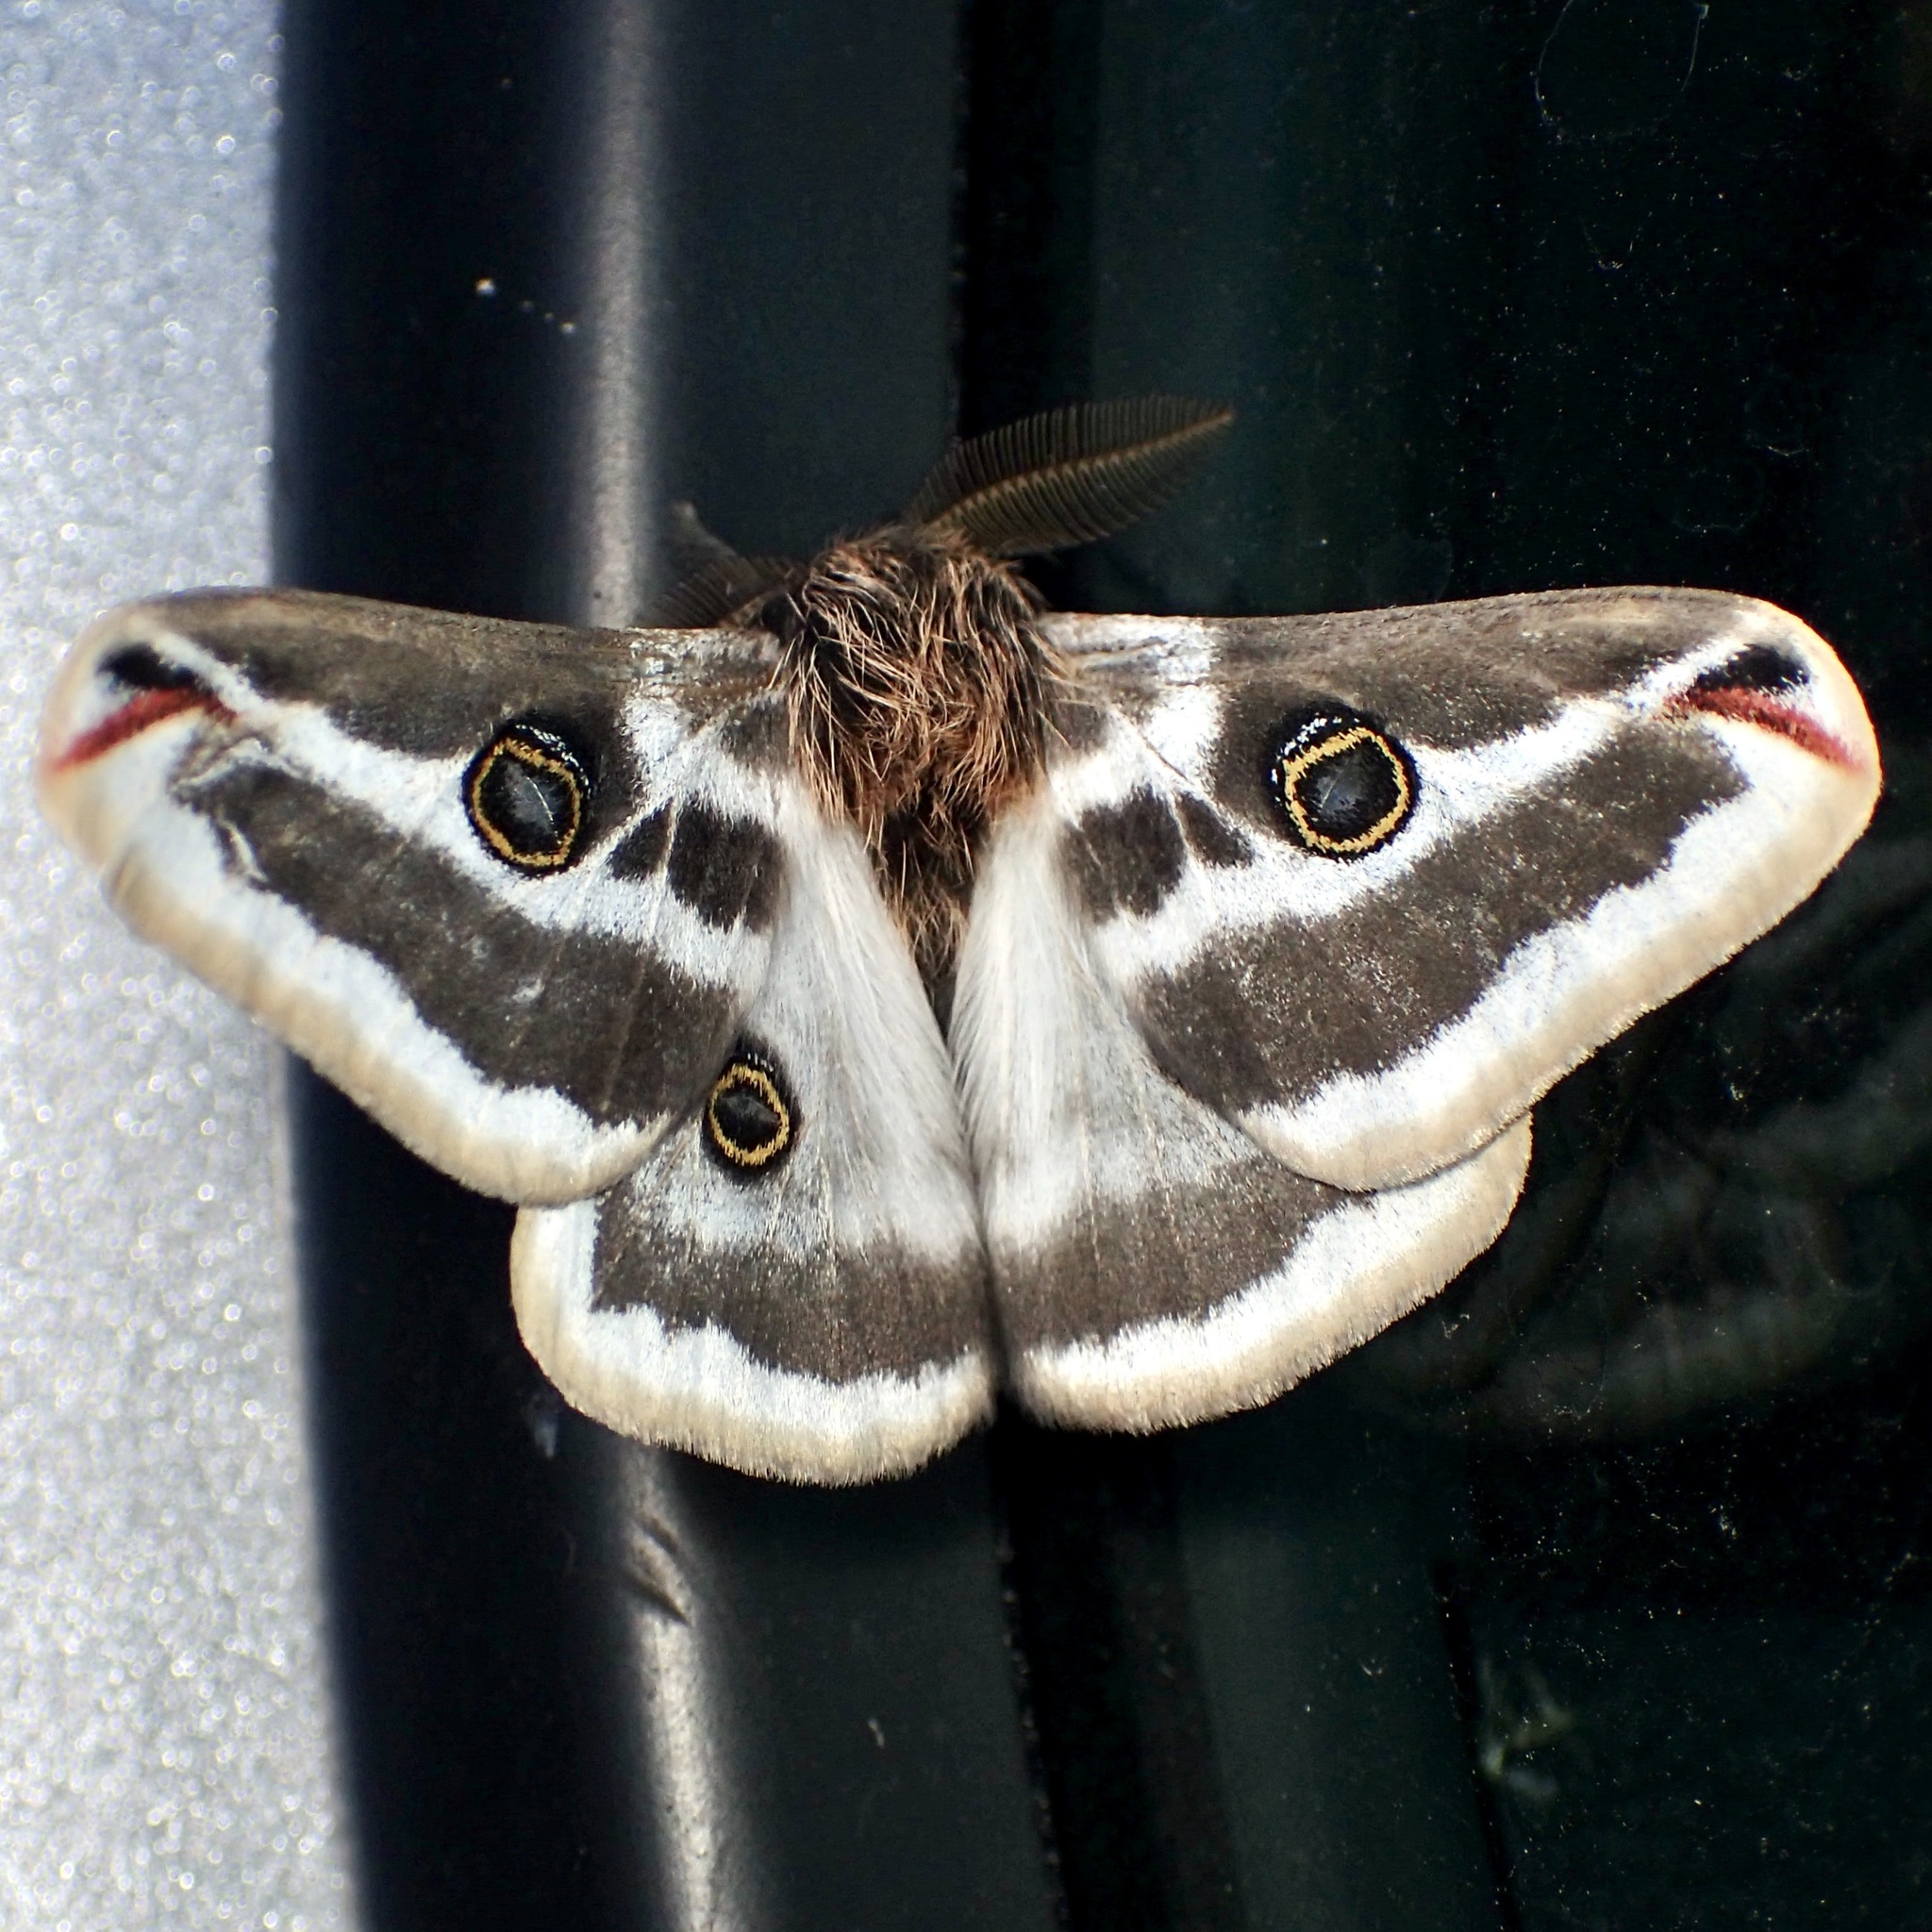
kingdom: Animalia
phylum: Arthropoda
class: Insecta
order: Lepidoptera
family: Saturniidae
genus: Saturnia
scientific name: Saturnia anona
